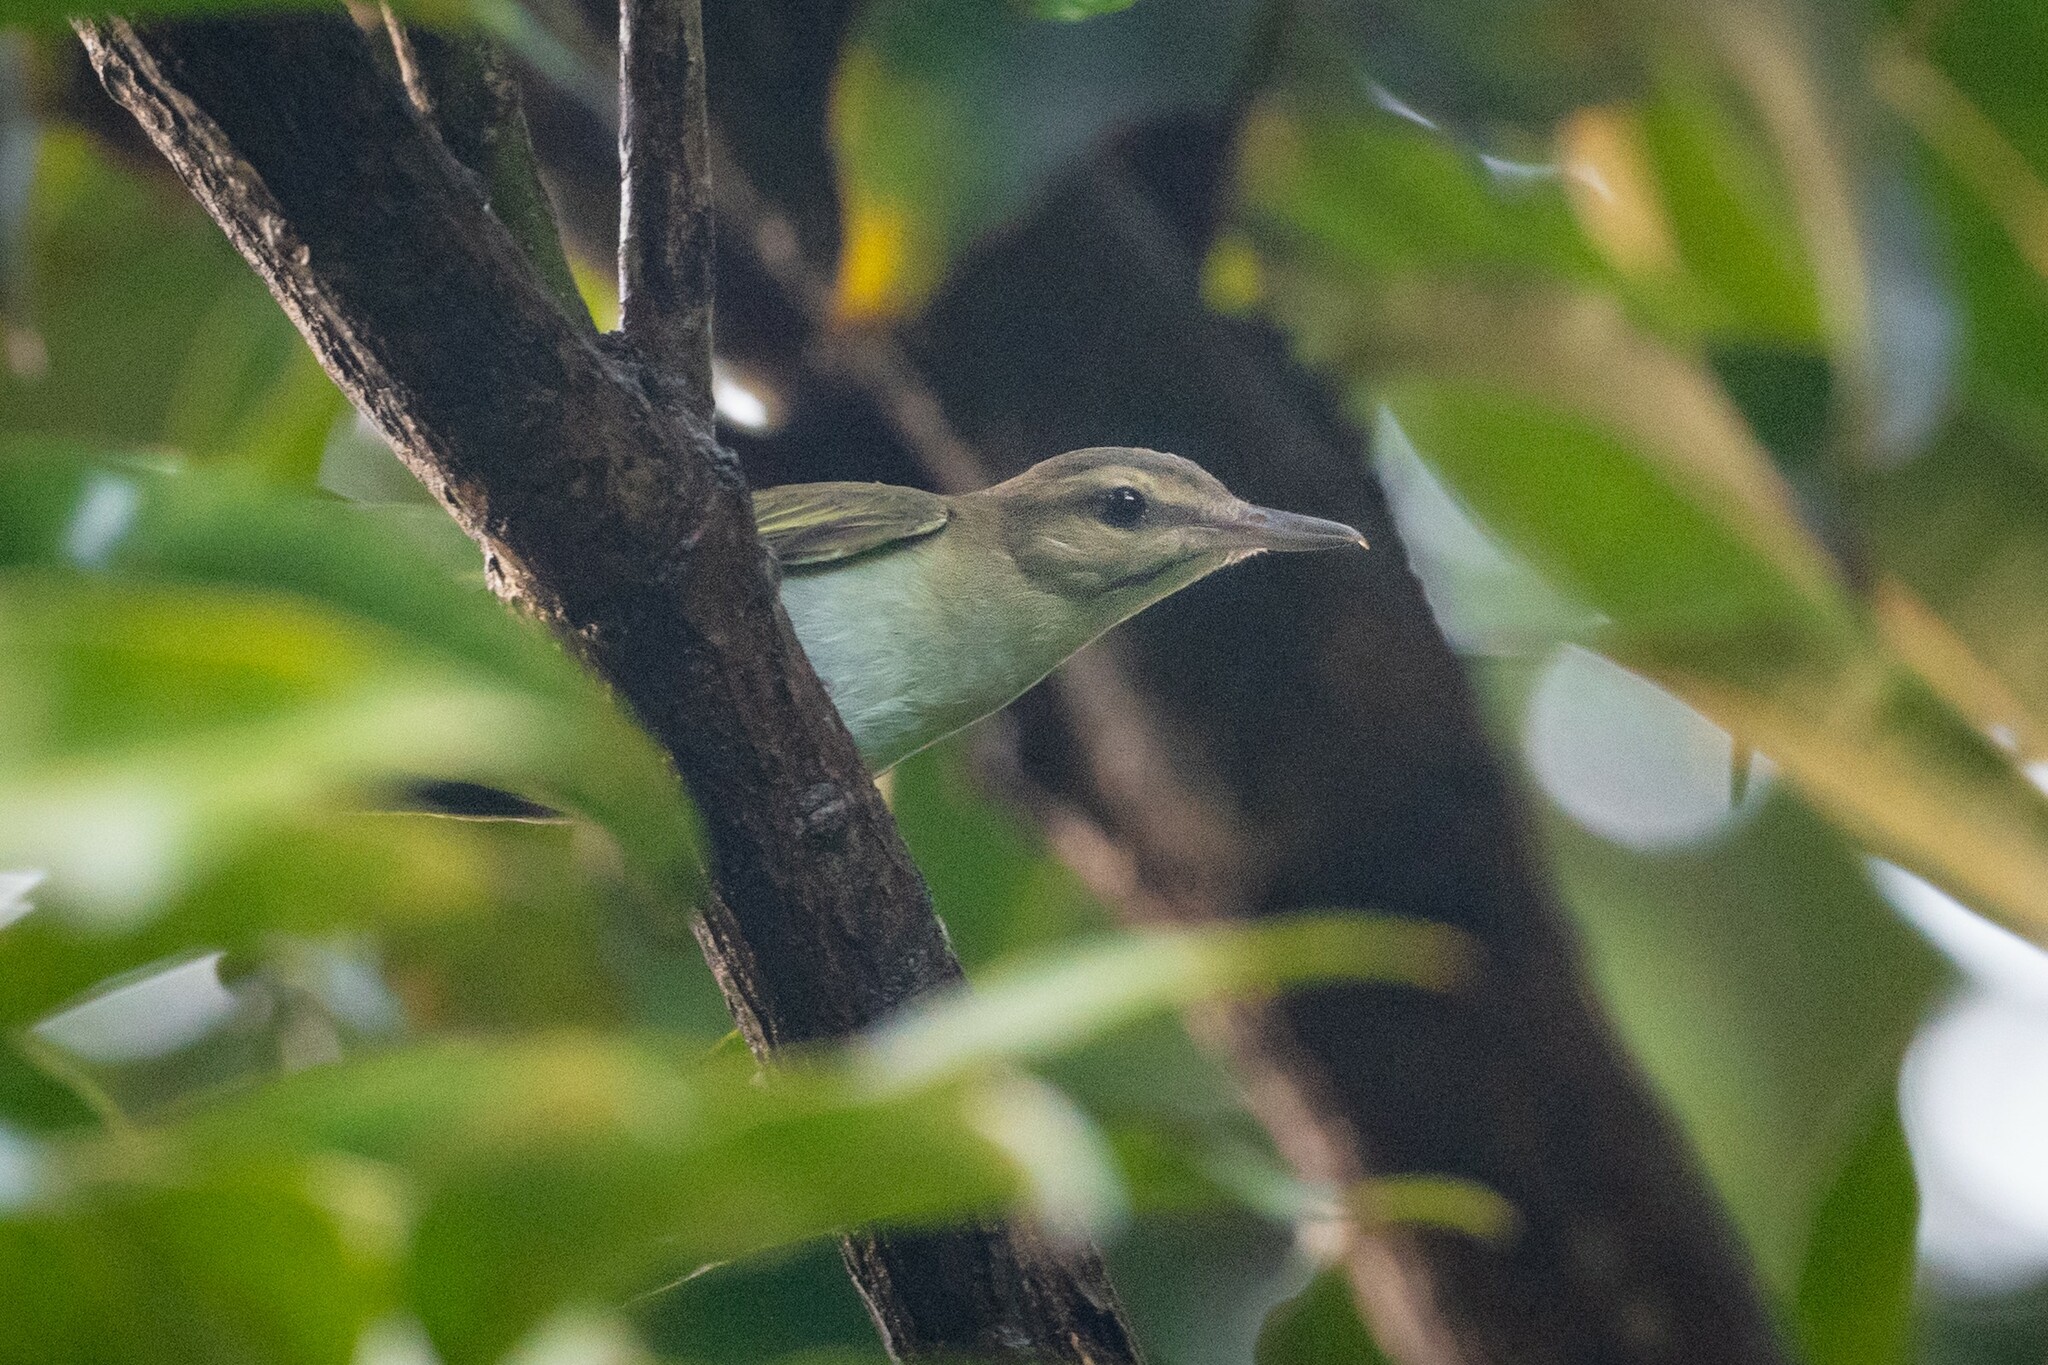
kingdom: Animalia
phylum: Chordata
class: Aves
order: Passeriformes
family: Vireonidae
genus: Vireo
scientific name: Vireo altiloquus
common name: Black-whiskered vireo
